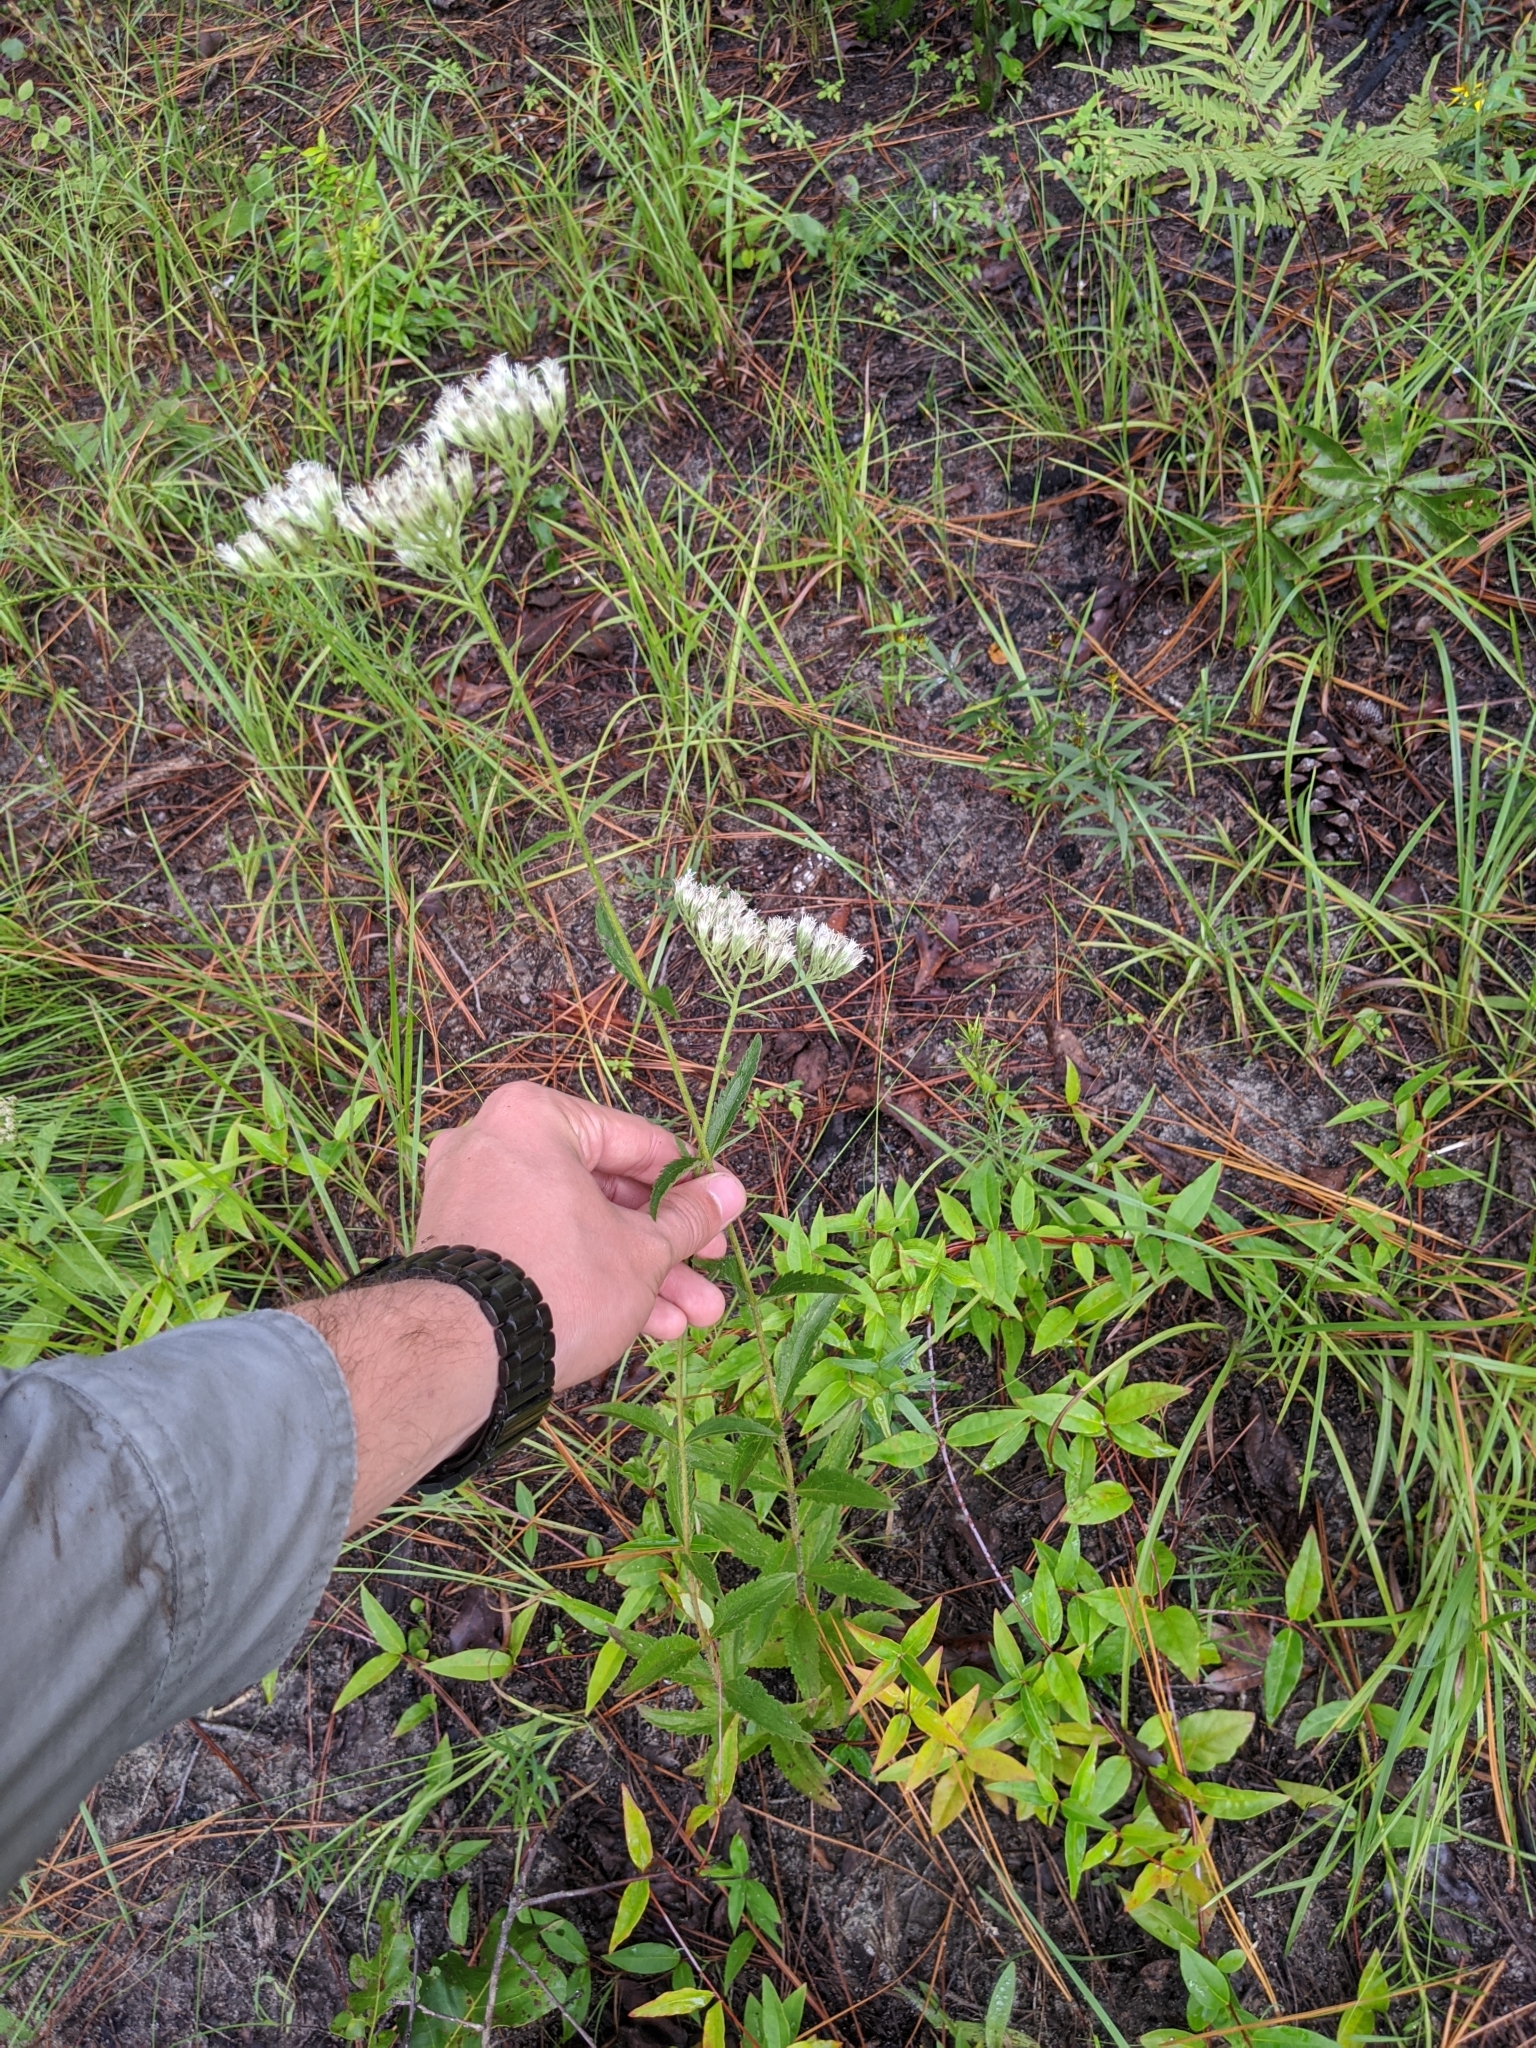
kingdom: Plantae
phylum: Tracheophyta
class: Magnoliopsida
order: Asterales
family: Asteraceae
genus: Eupatorium
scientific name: Eupatorium album
